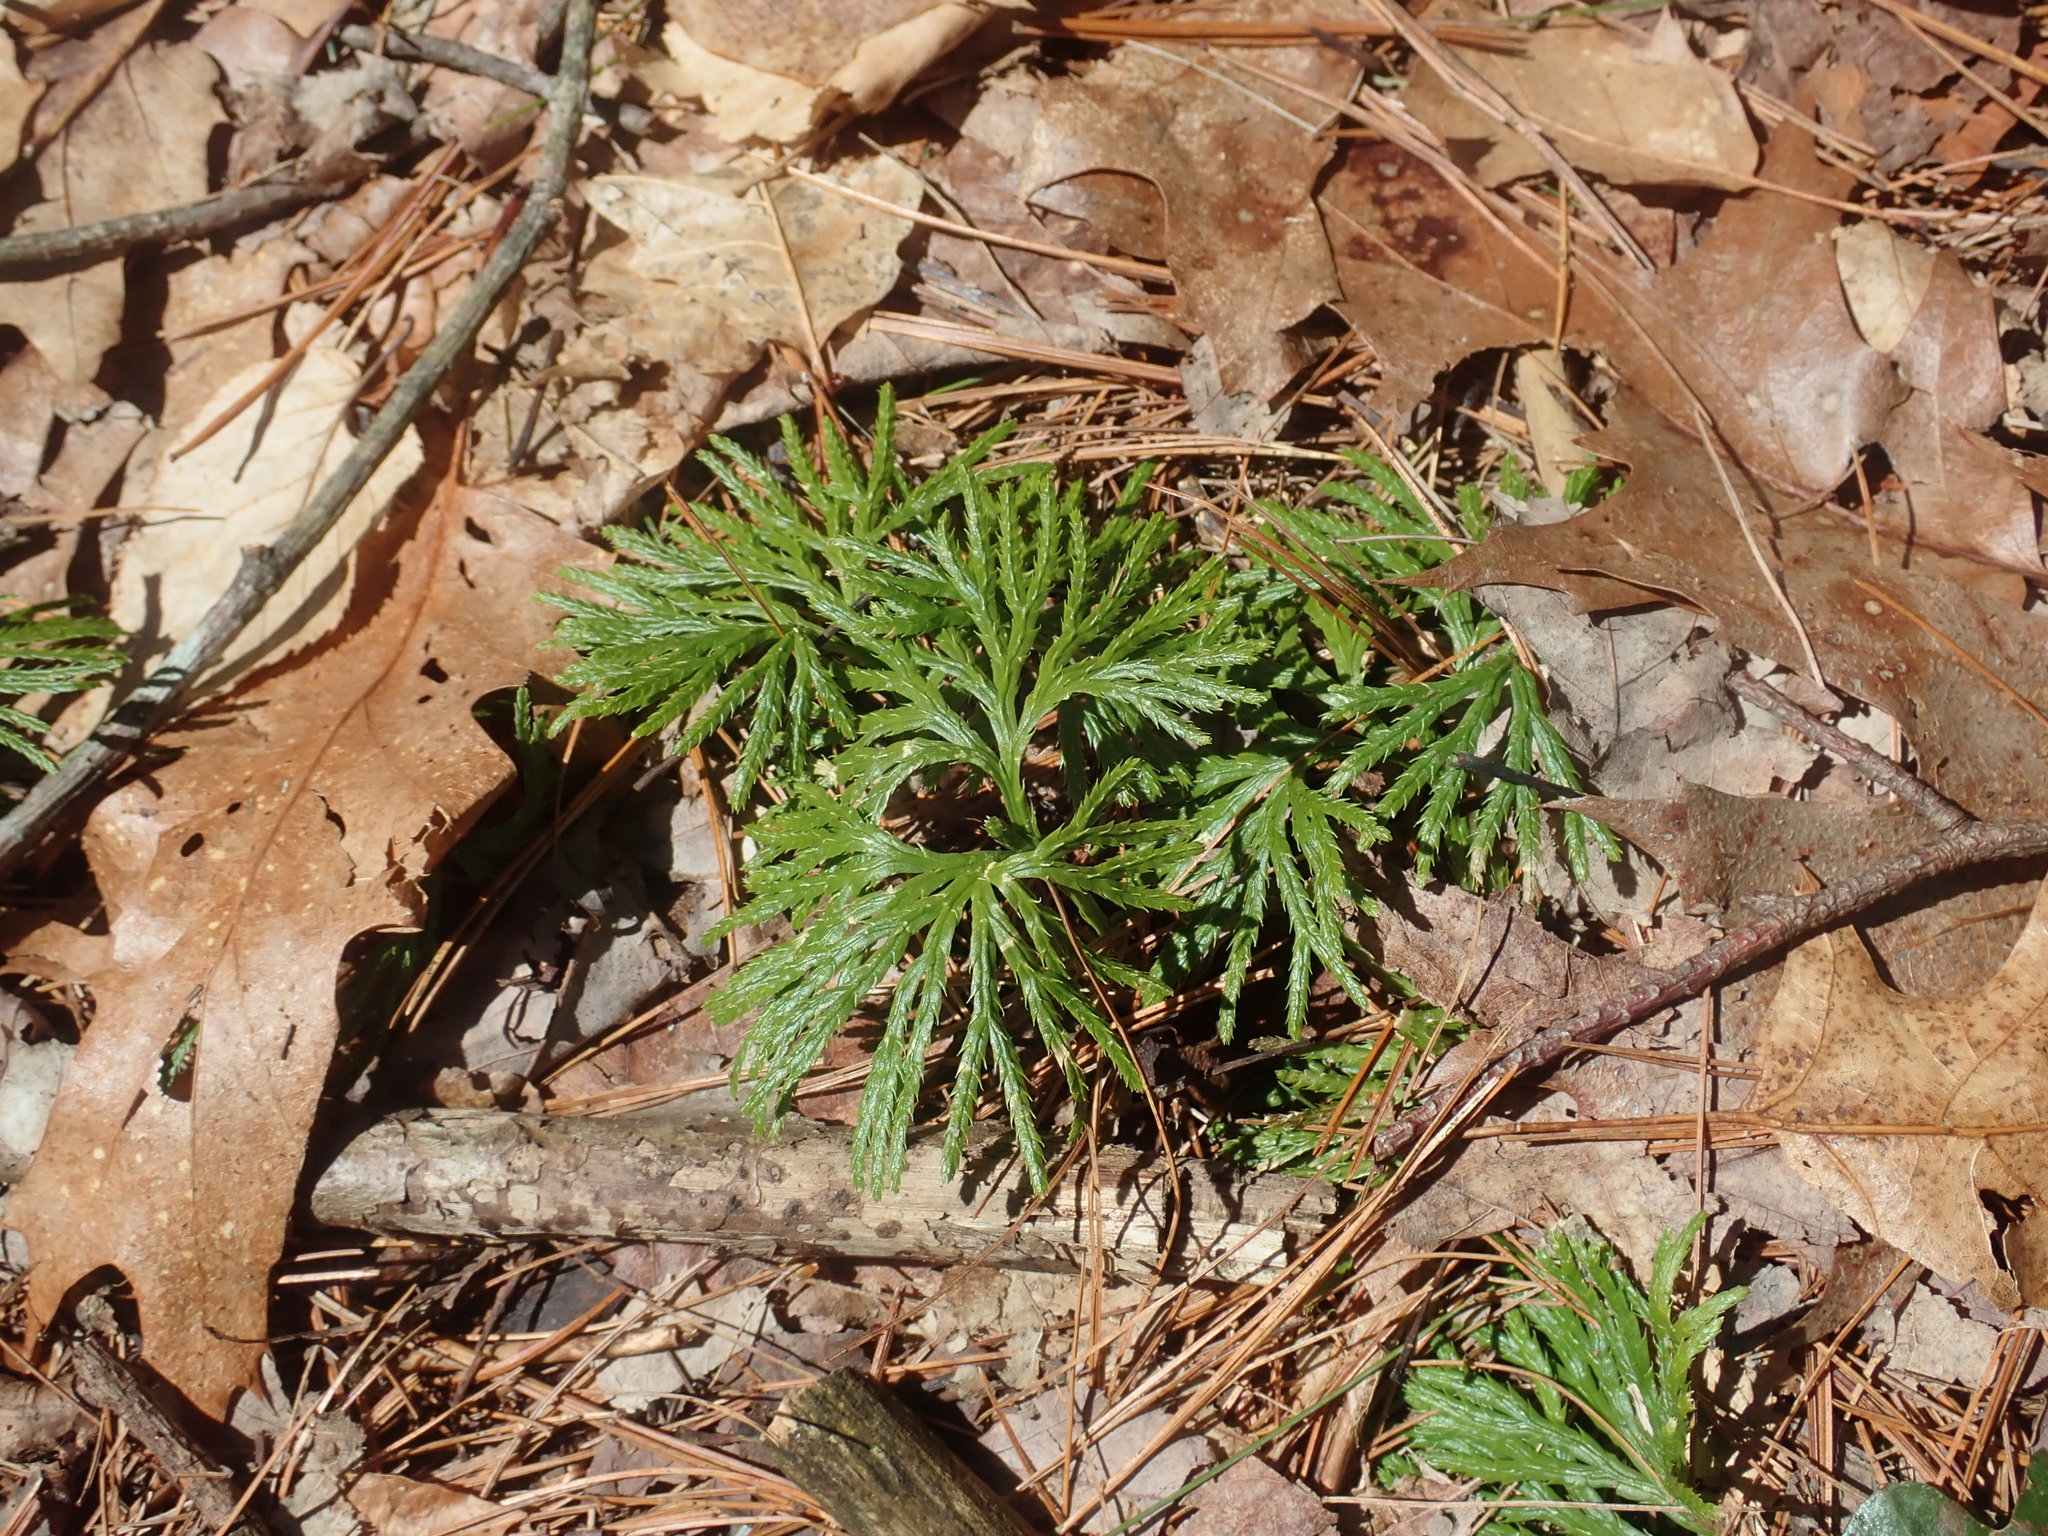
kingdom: Plantae
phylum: Tracheophyta
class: Lycopodiopsida
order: Lycopodiales
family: Lycopodiaceae
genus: Diphasiastrum
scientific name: Diphasiastrum digitatum
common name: Southern running-pine
